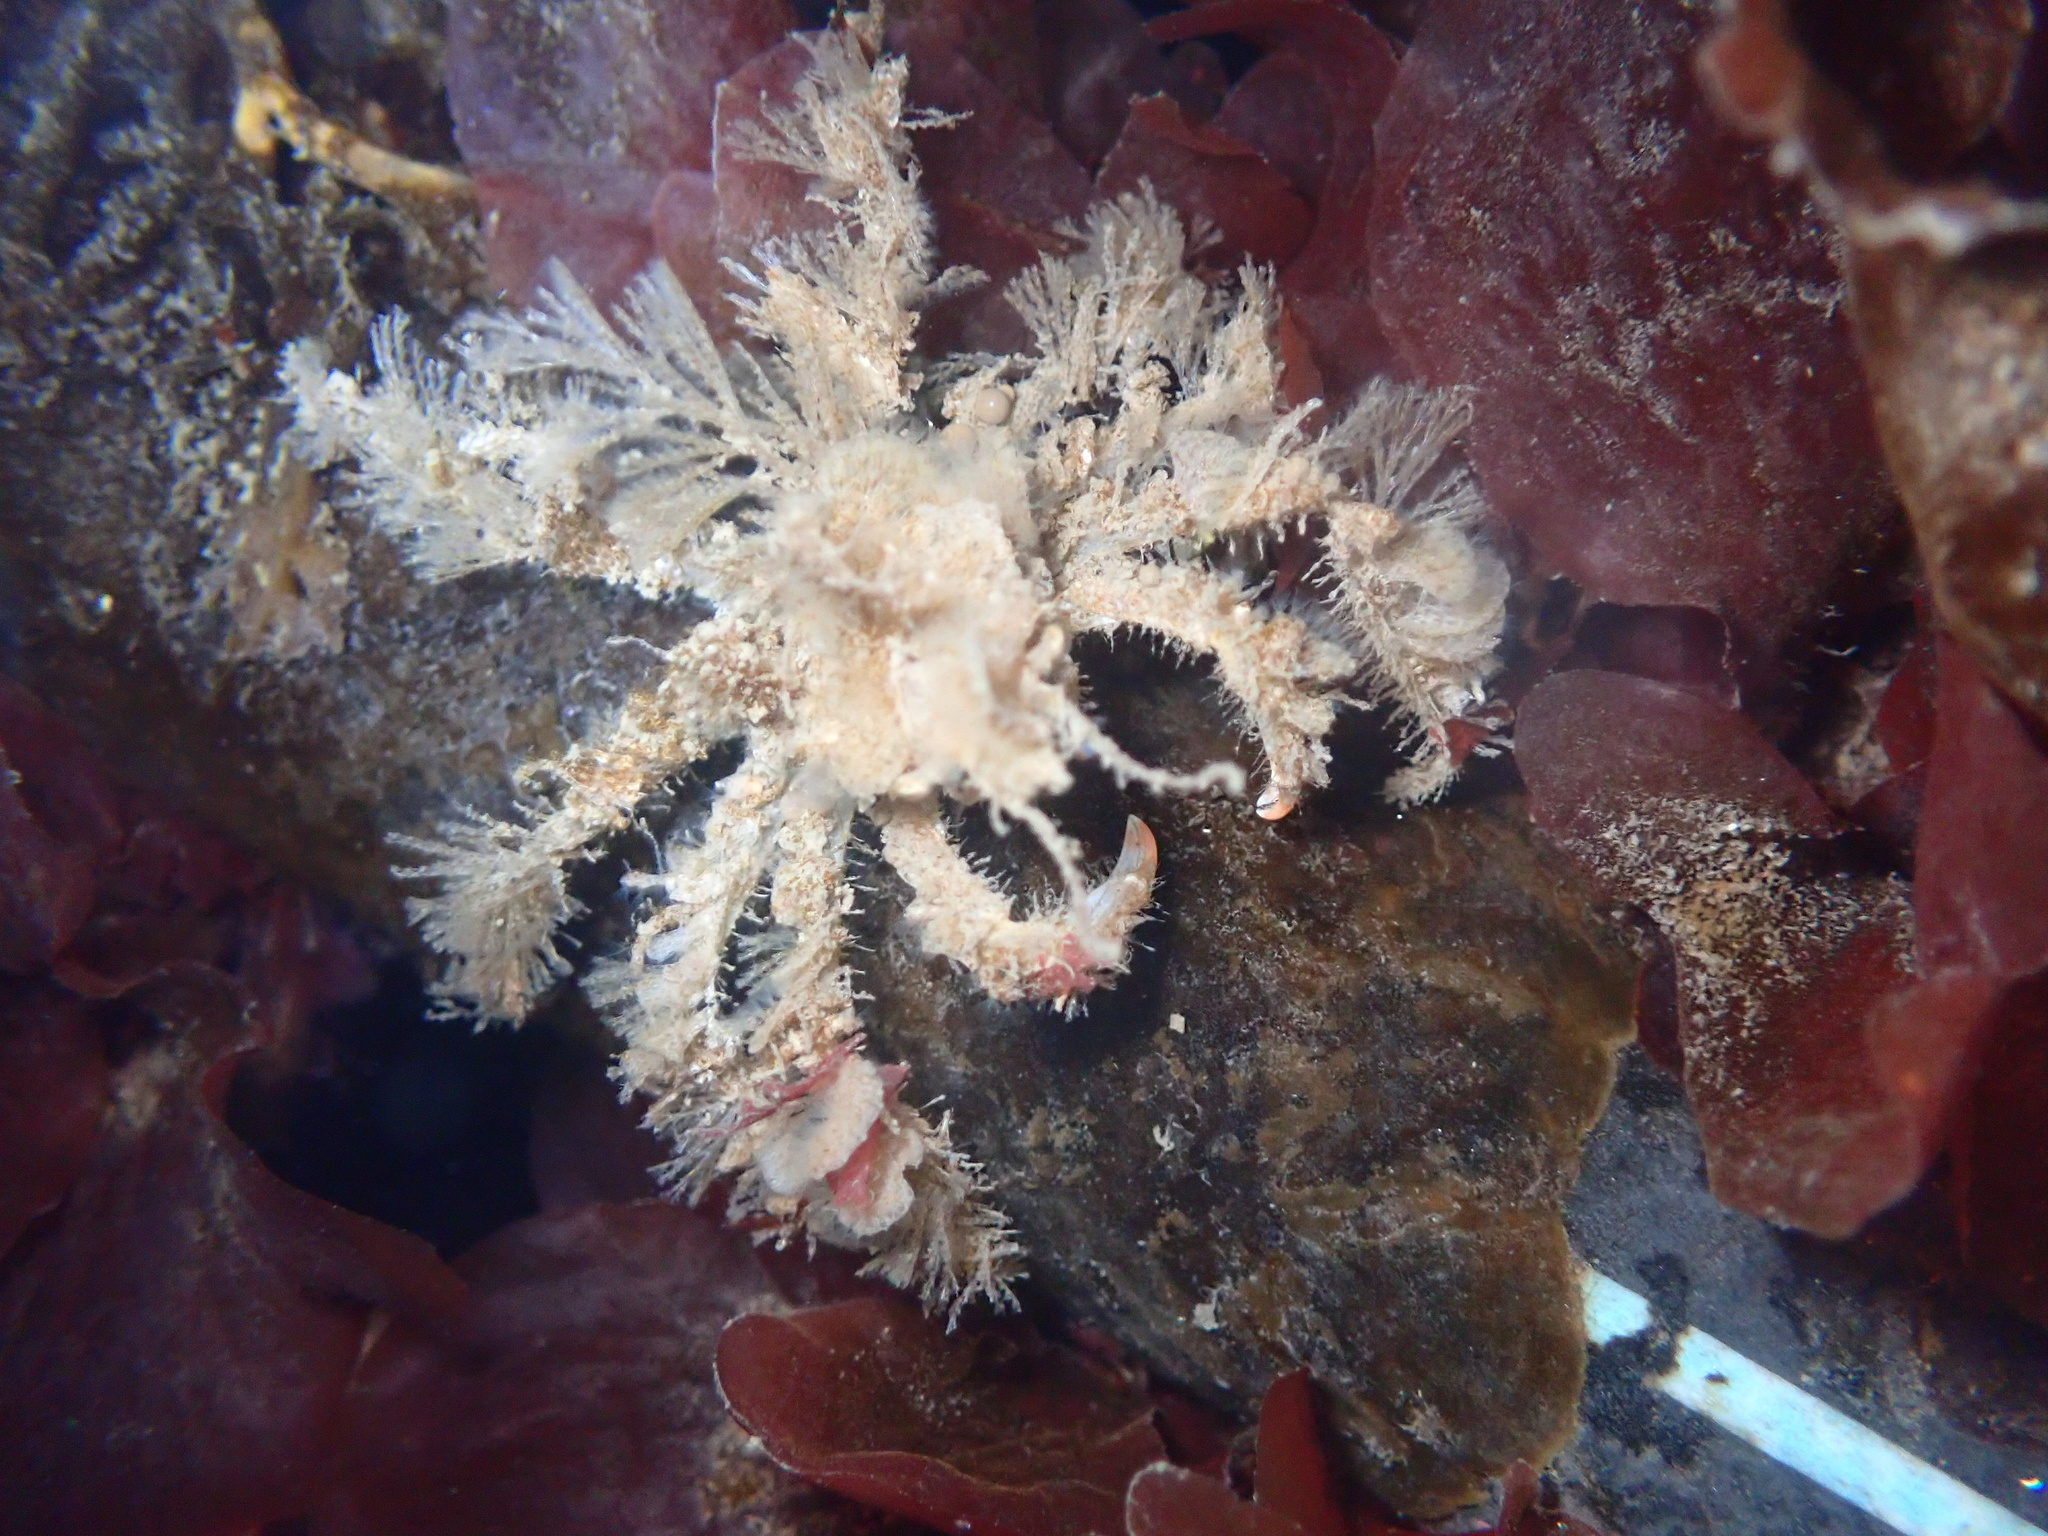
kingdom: Animalia
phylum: Arthropoda
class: Malacostraca
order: Decapoda
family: Oregoniidae
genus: Oregonia
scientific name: Oregonia gracilis
